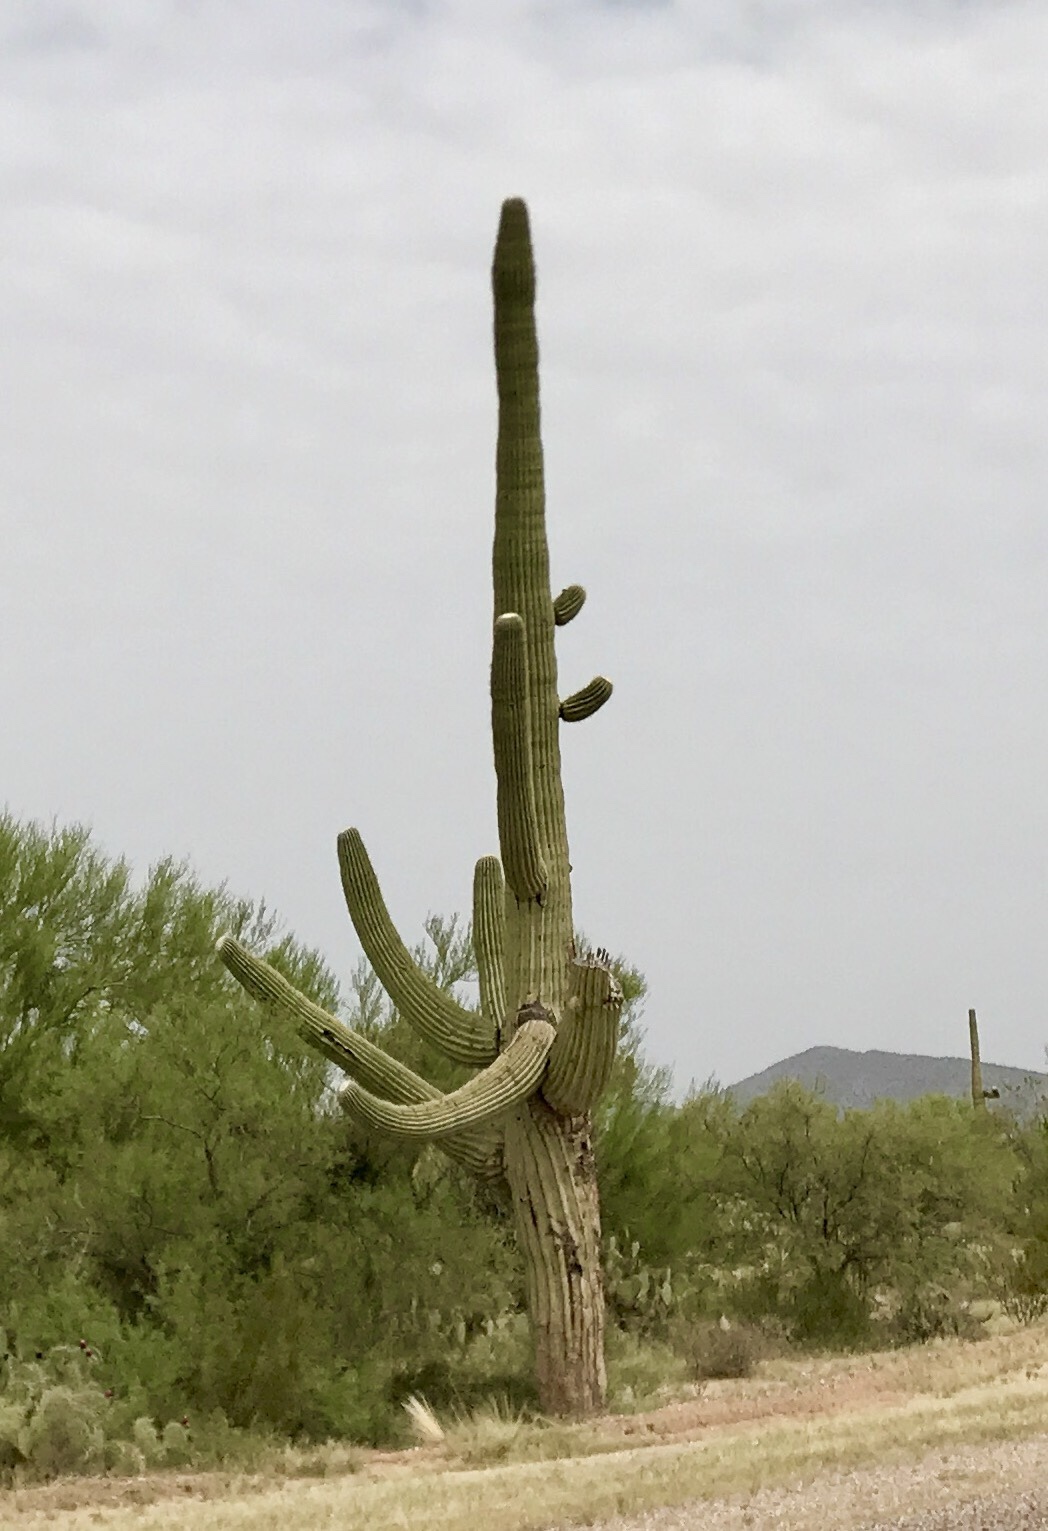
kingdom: Plantae
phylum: Tracheophyta
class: Magnoliopsida
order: Caryophyllales
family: Cactaceae
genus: Carnegiea
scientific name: Carnegiea gigantea
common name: Saguaro
